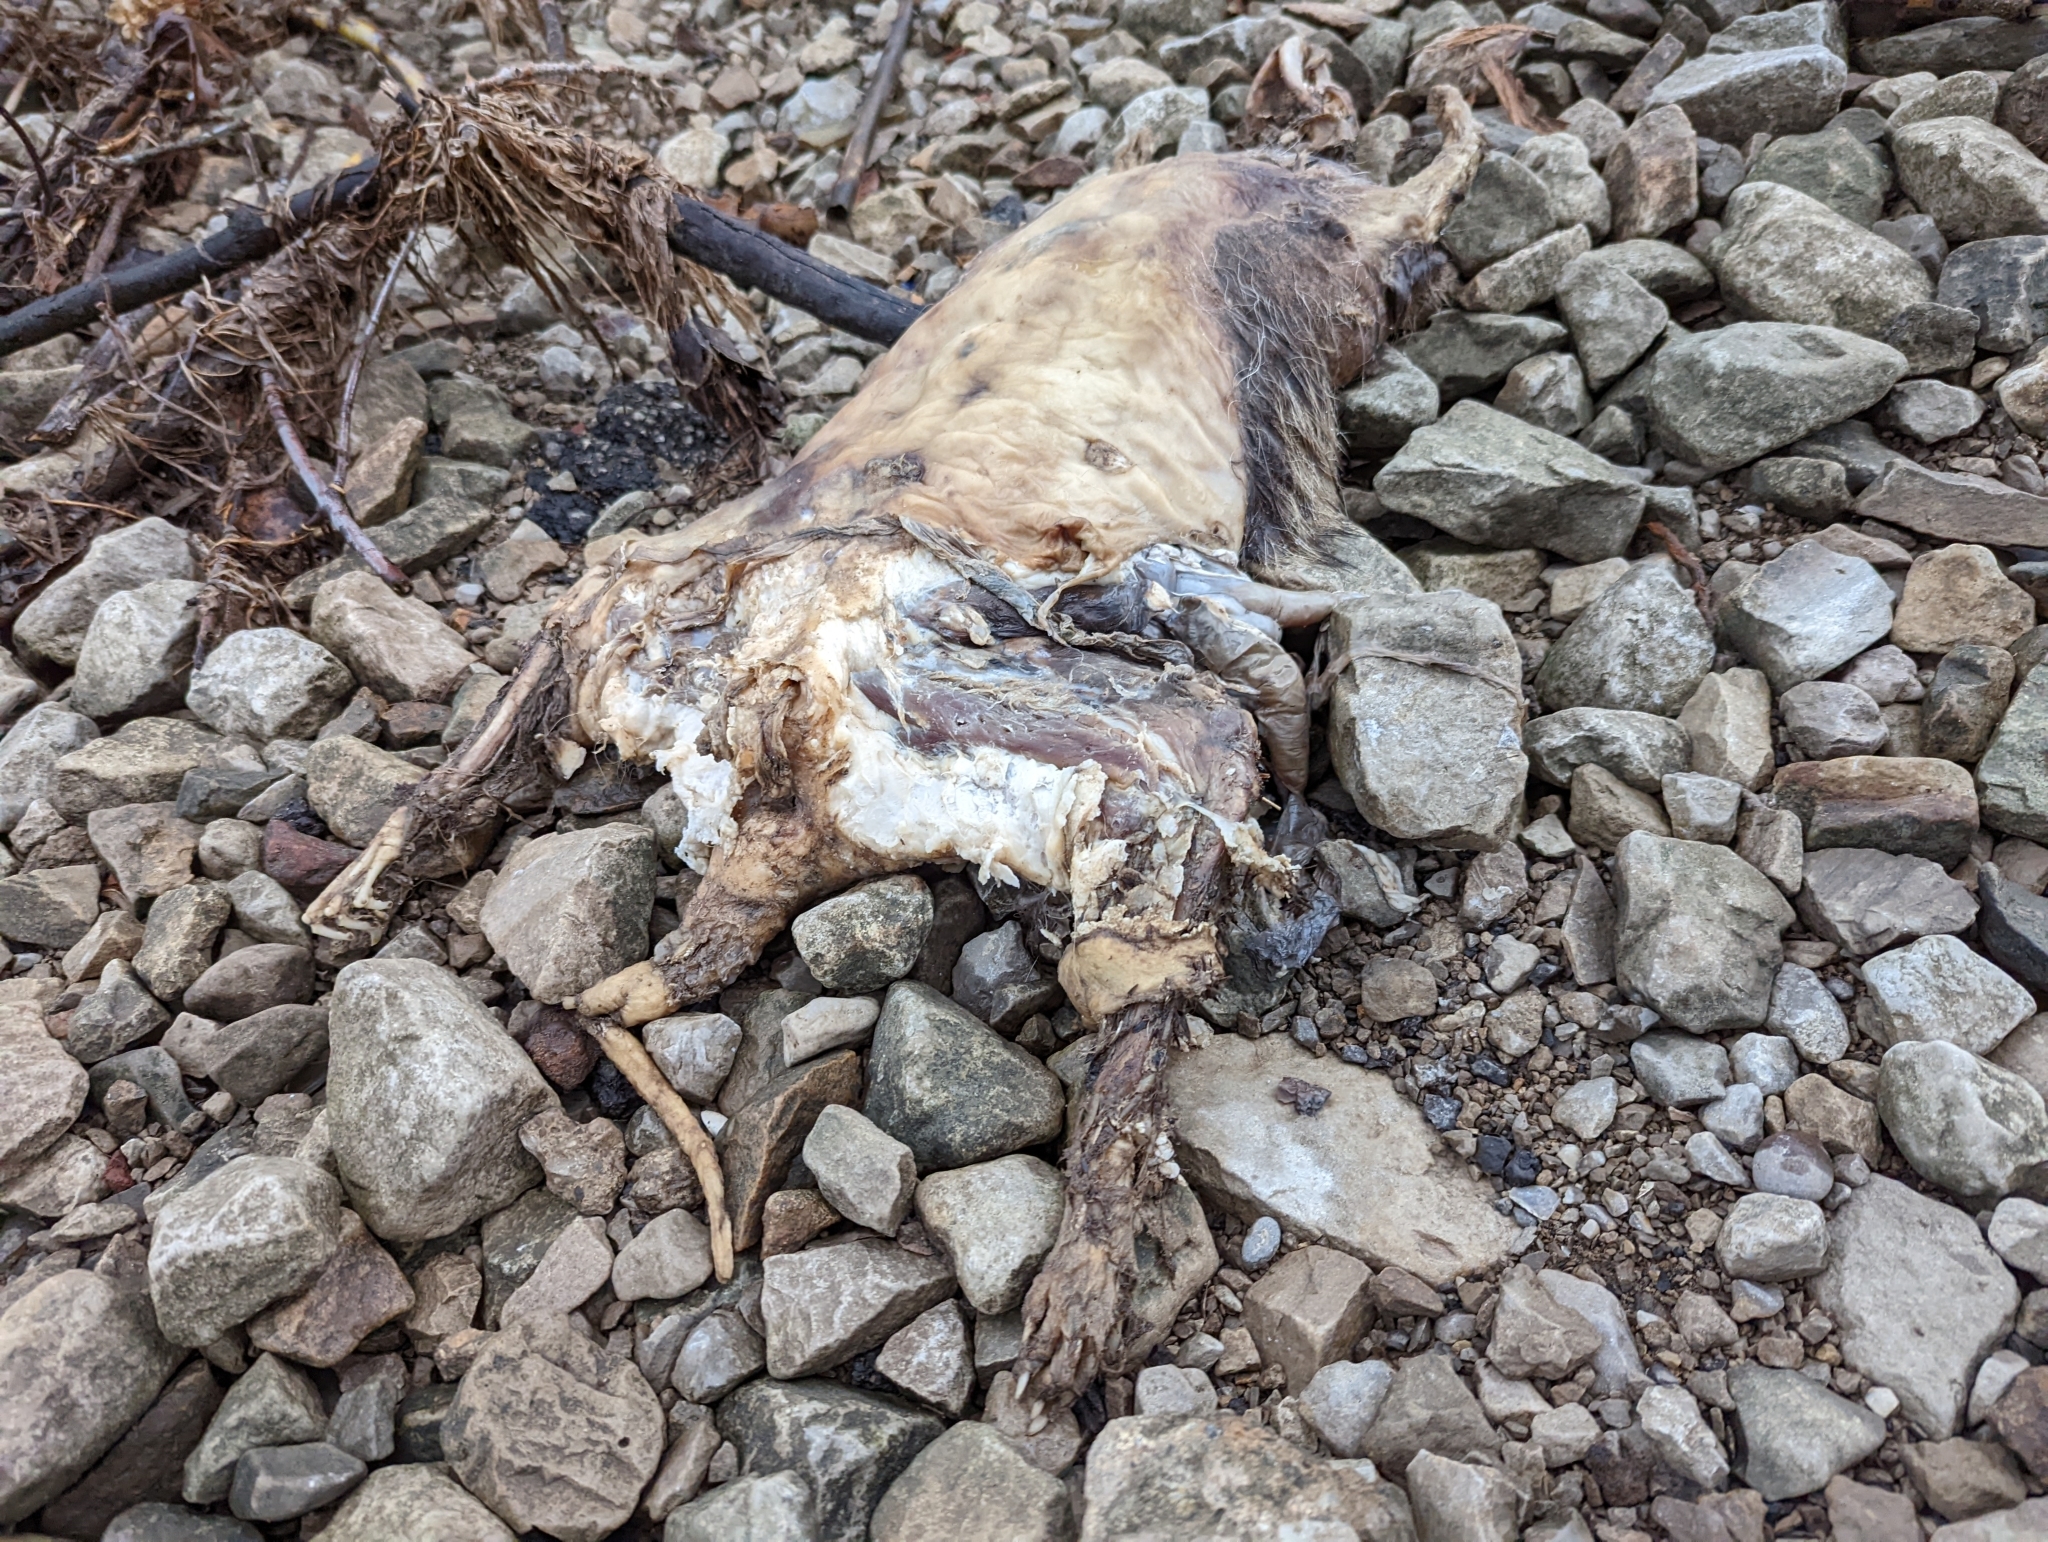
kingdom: Animalia
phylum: Chordata
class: Mammalia
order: Carnivora
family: Procyonidae
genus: Procyon
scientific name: Procyon lotor
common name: Raccoon
